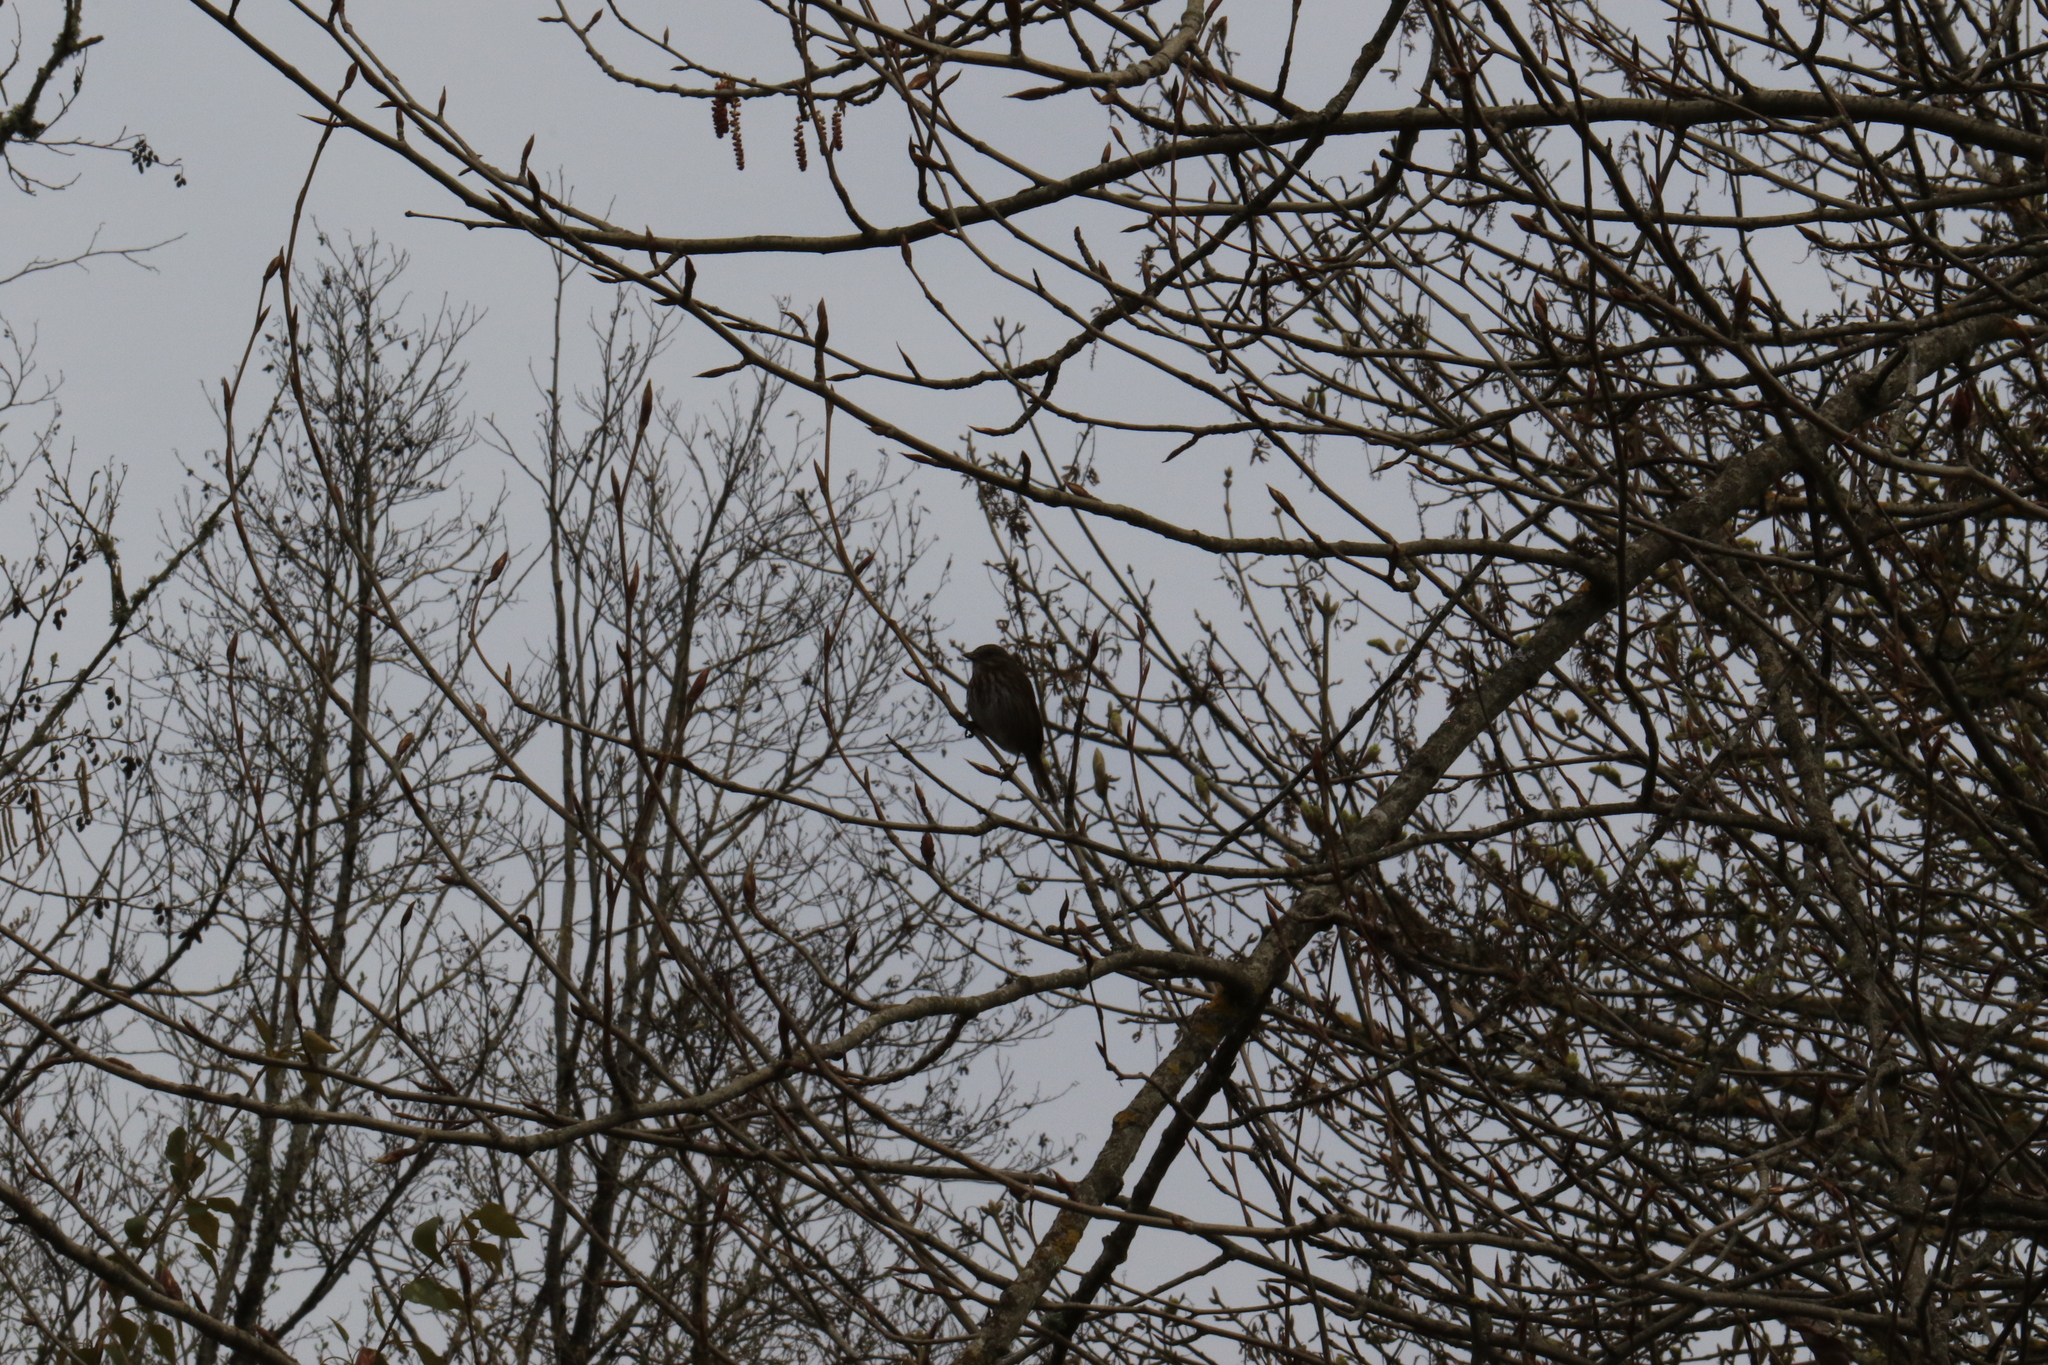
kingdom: Animalia
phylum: Chordata
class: Aves
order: Passeriformes
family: Passerellidae
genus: Melospiza
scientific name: Melospiza melodia
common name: Song sparrow
